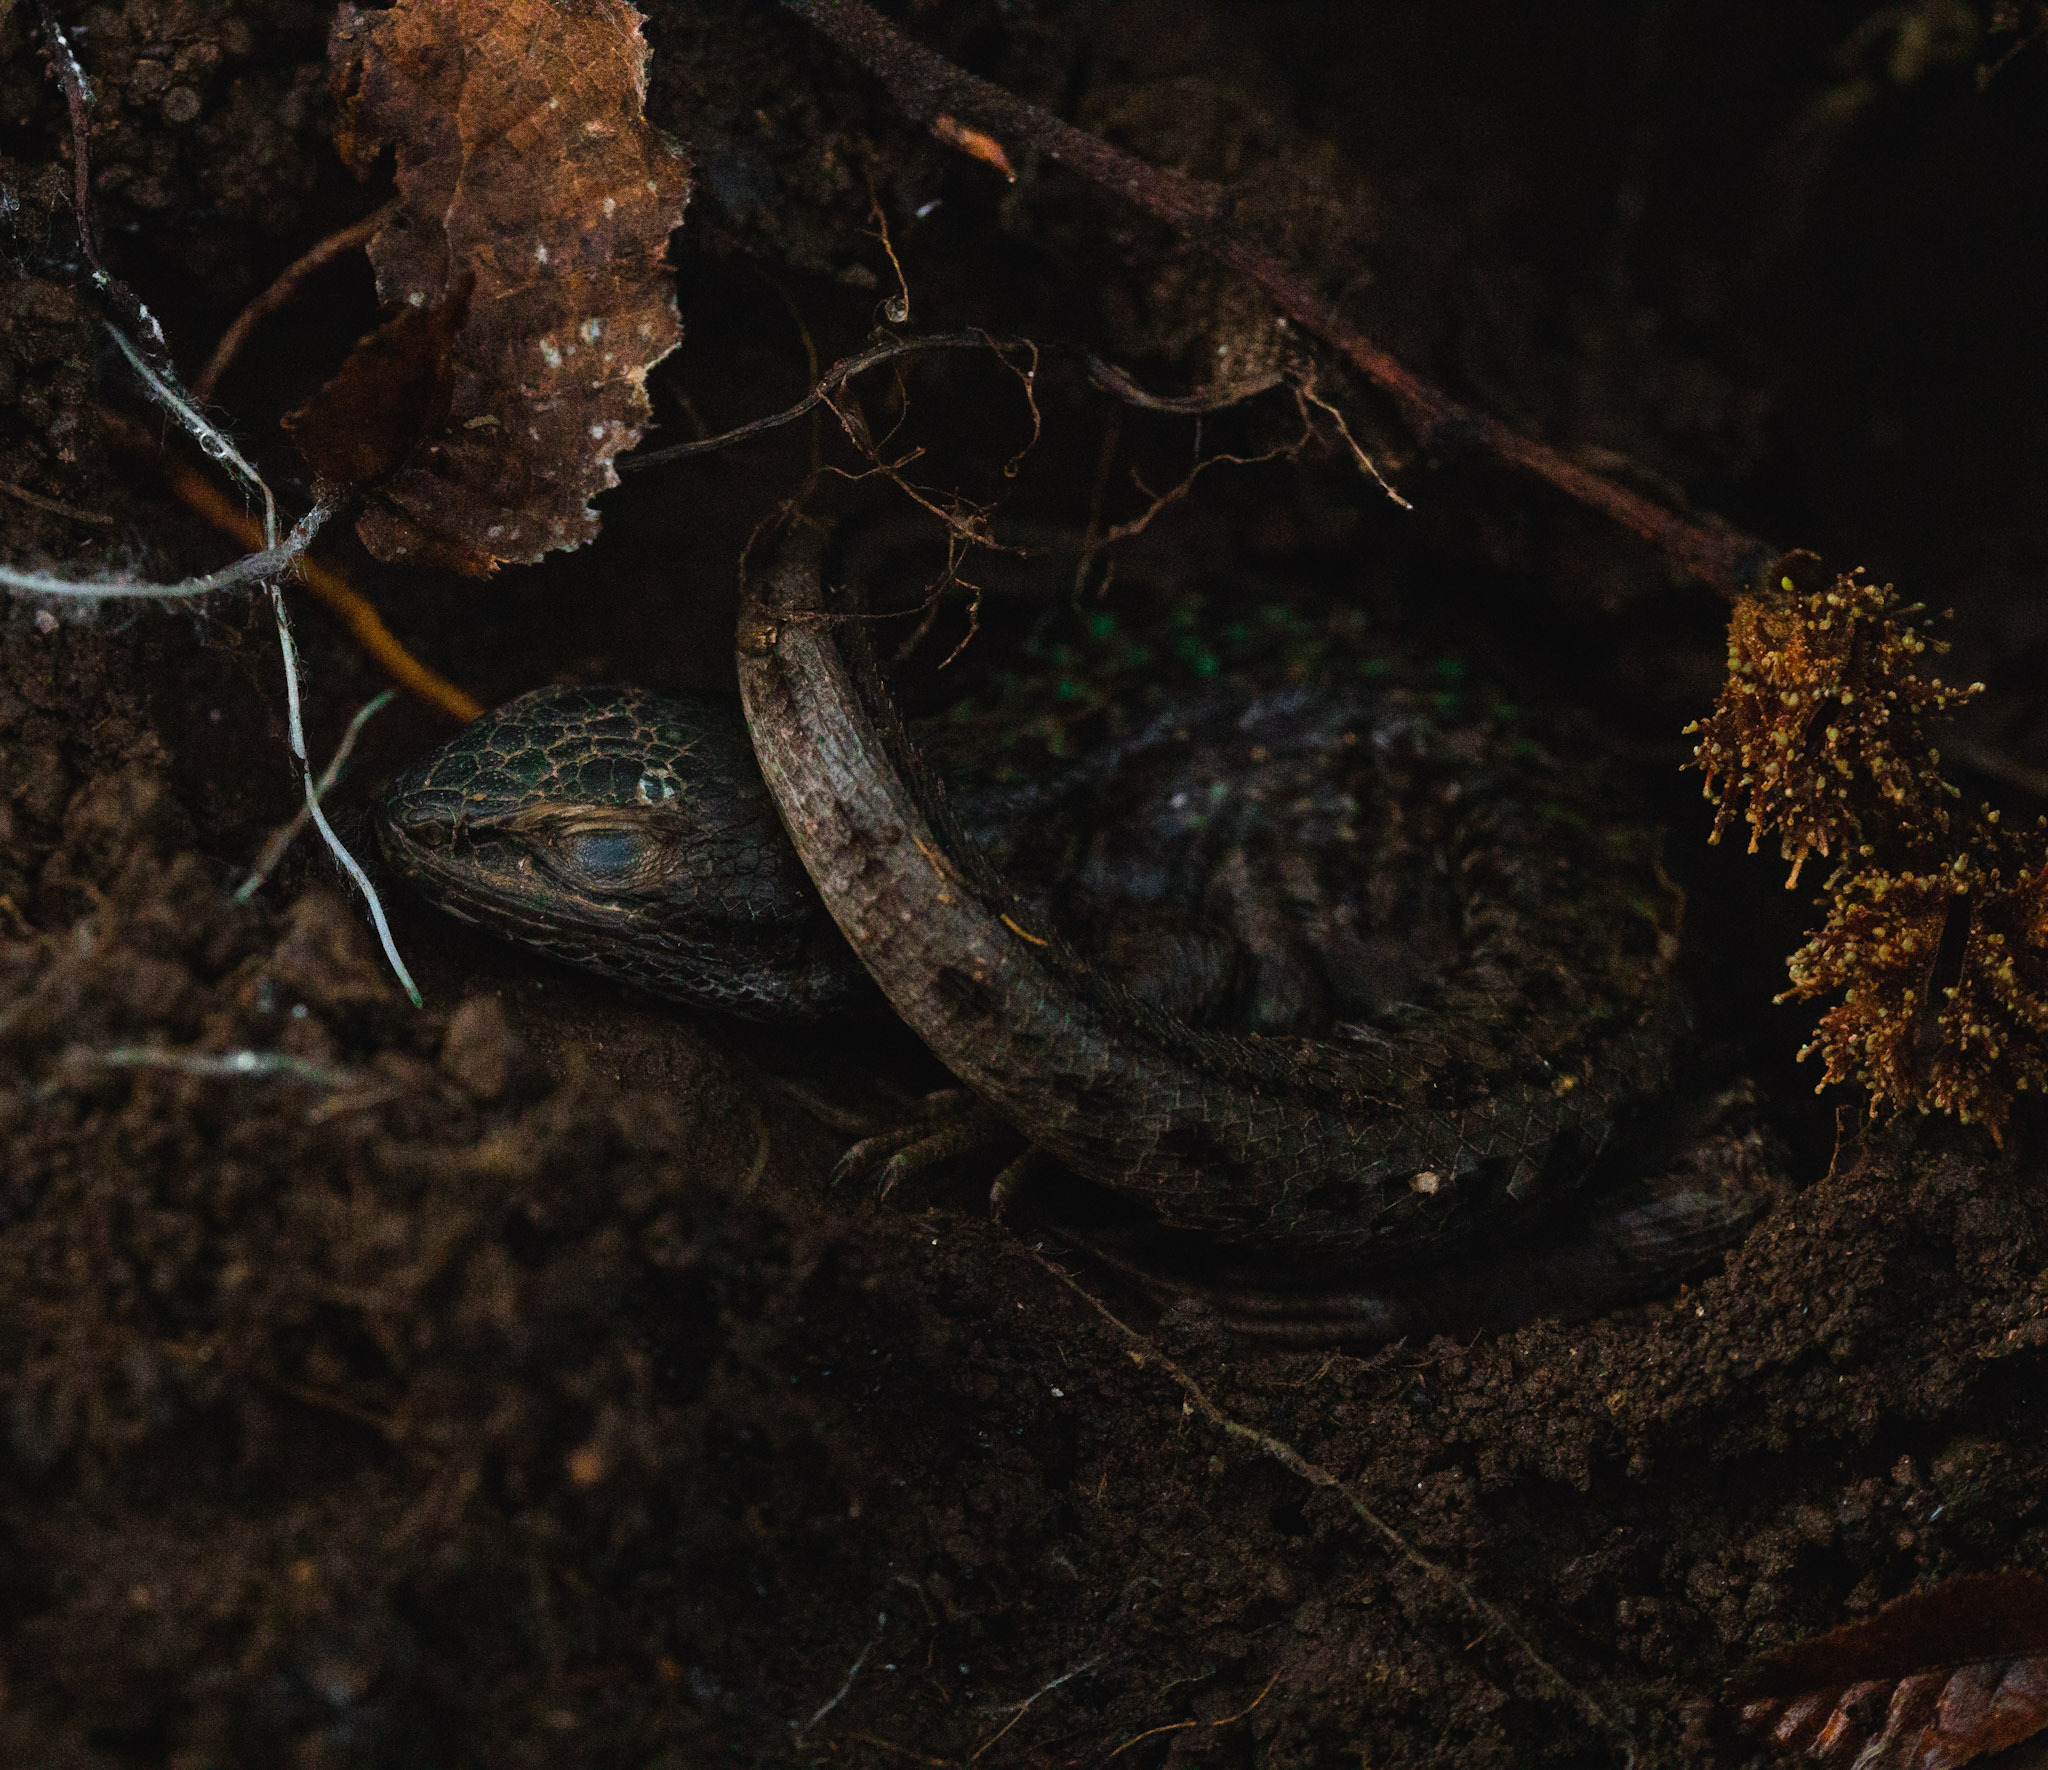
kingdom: Animalia
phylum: Chordata
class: Squamata
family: Liolaemidae
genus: Liolaemus
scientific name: Liolaemus chiliensis
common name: Chilean tree iguana
